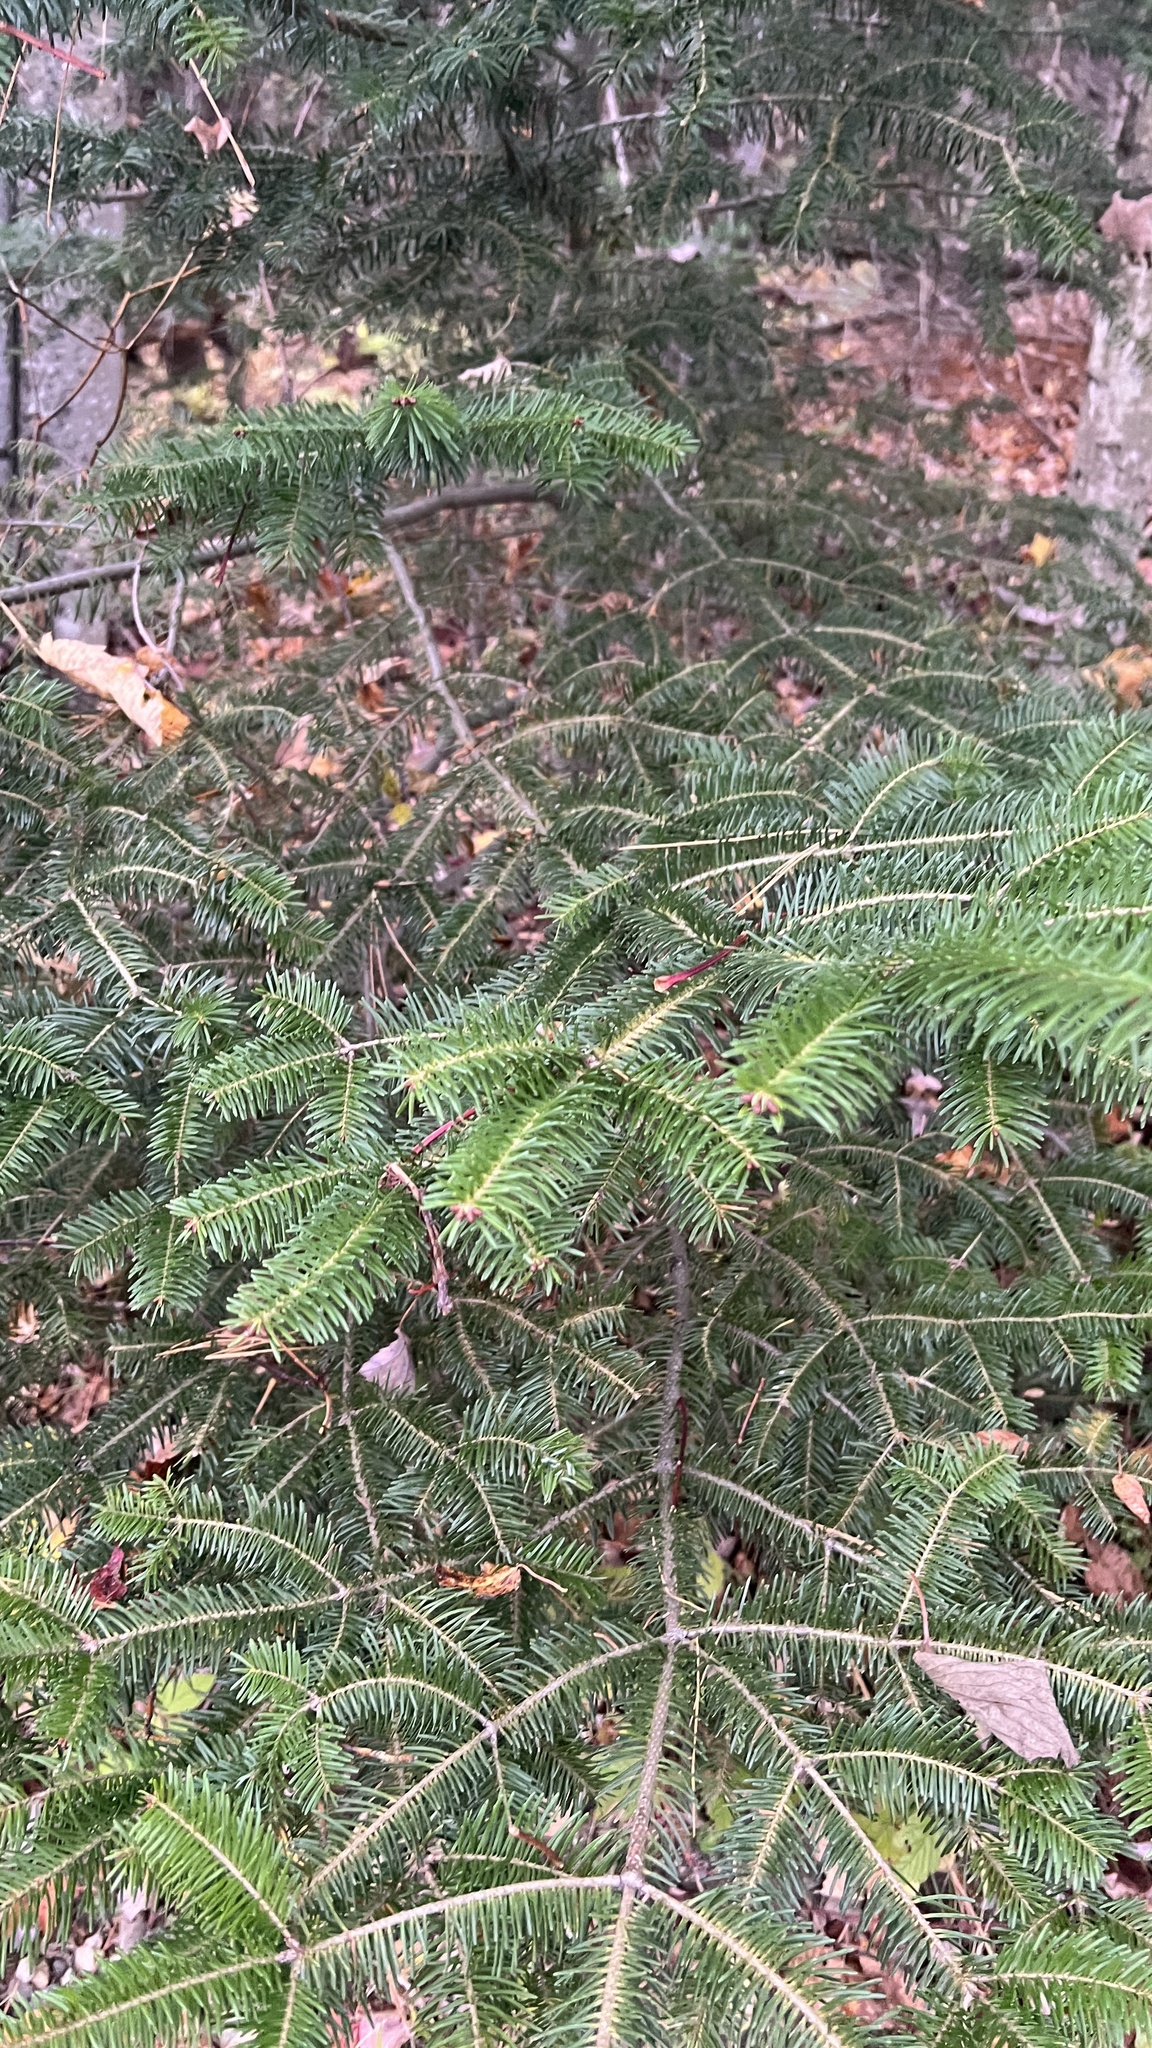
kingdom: Plantae
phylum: Tracheophyta
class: Pinopsida
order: Pinales
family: Pinaceae
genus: Abies
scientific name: Abies balsamea
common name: Balsam fir
